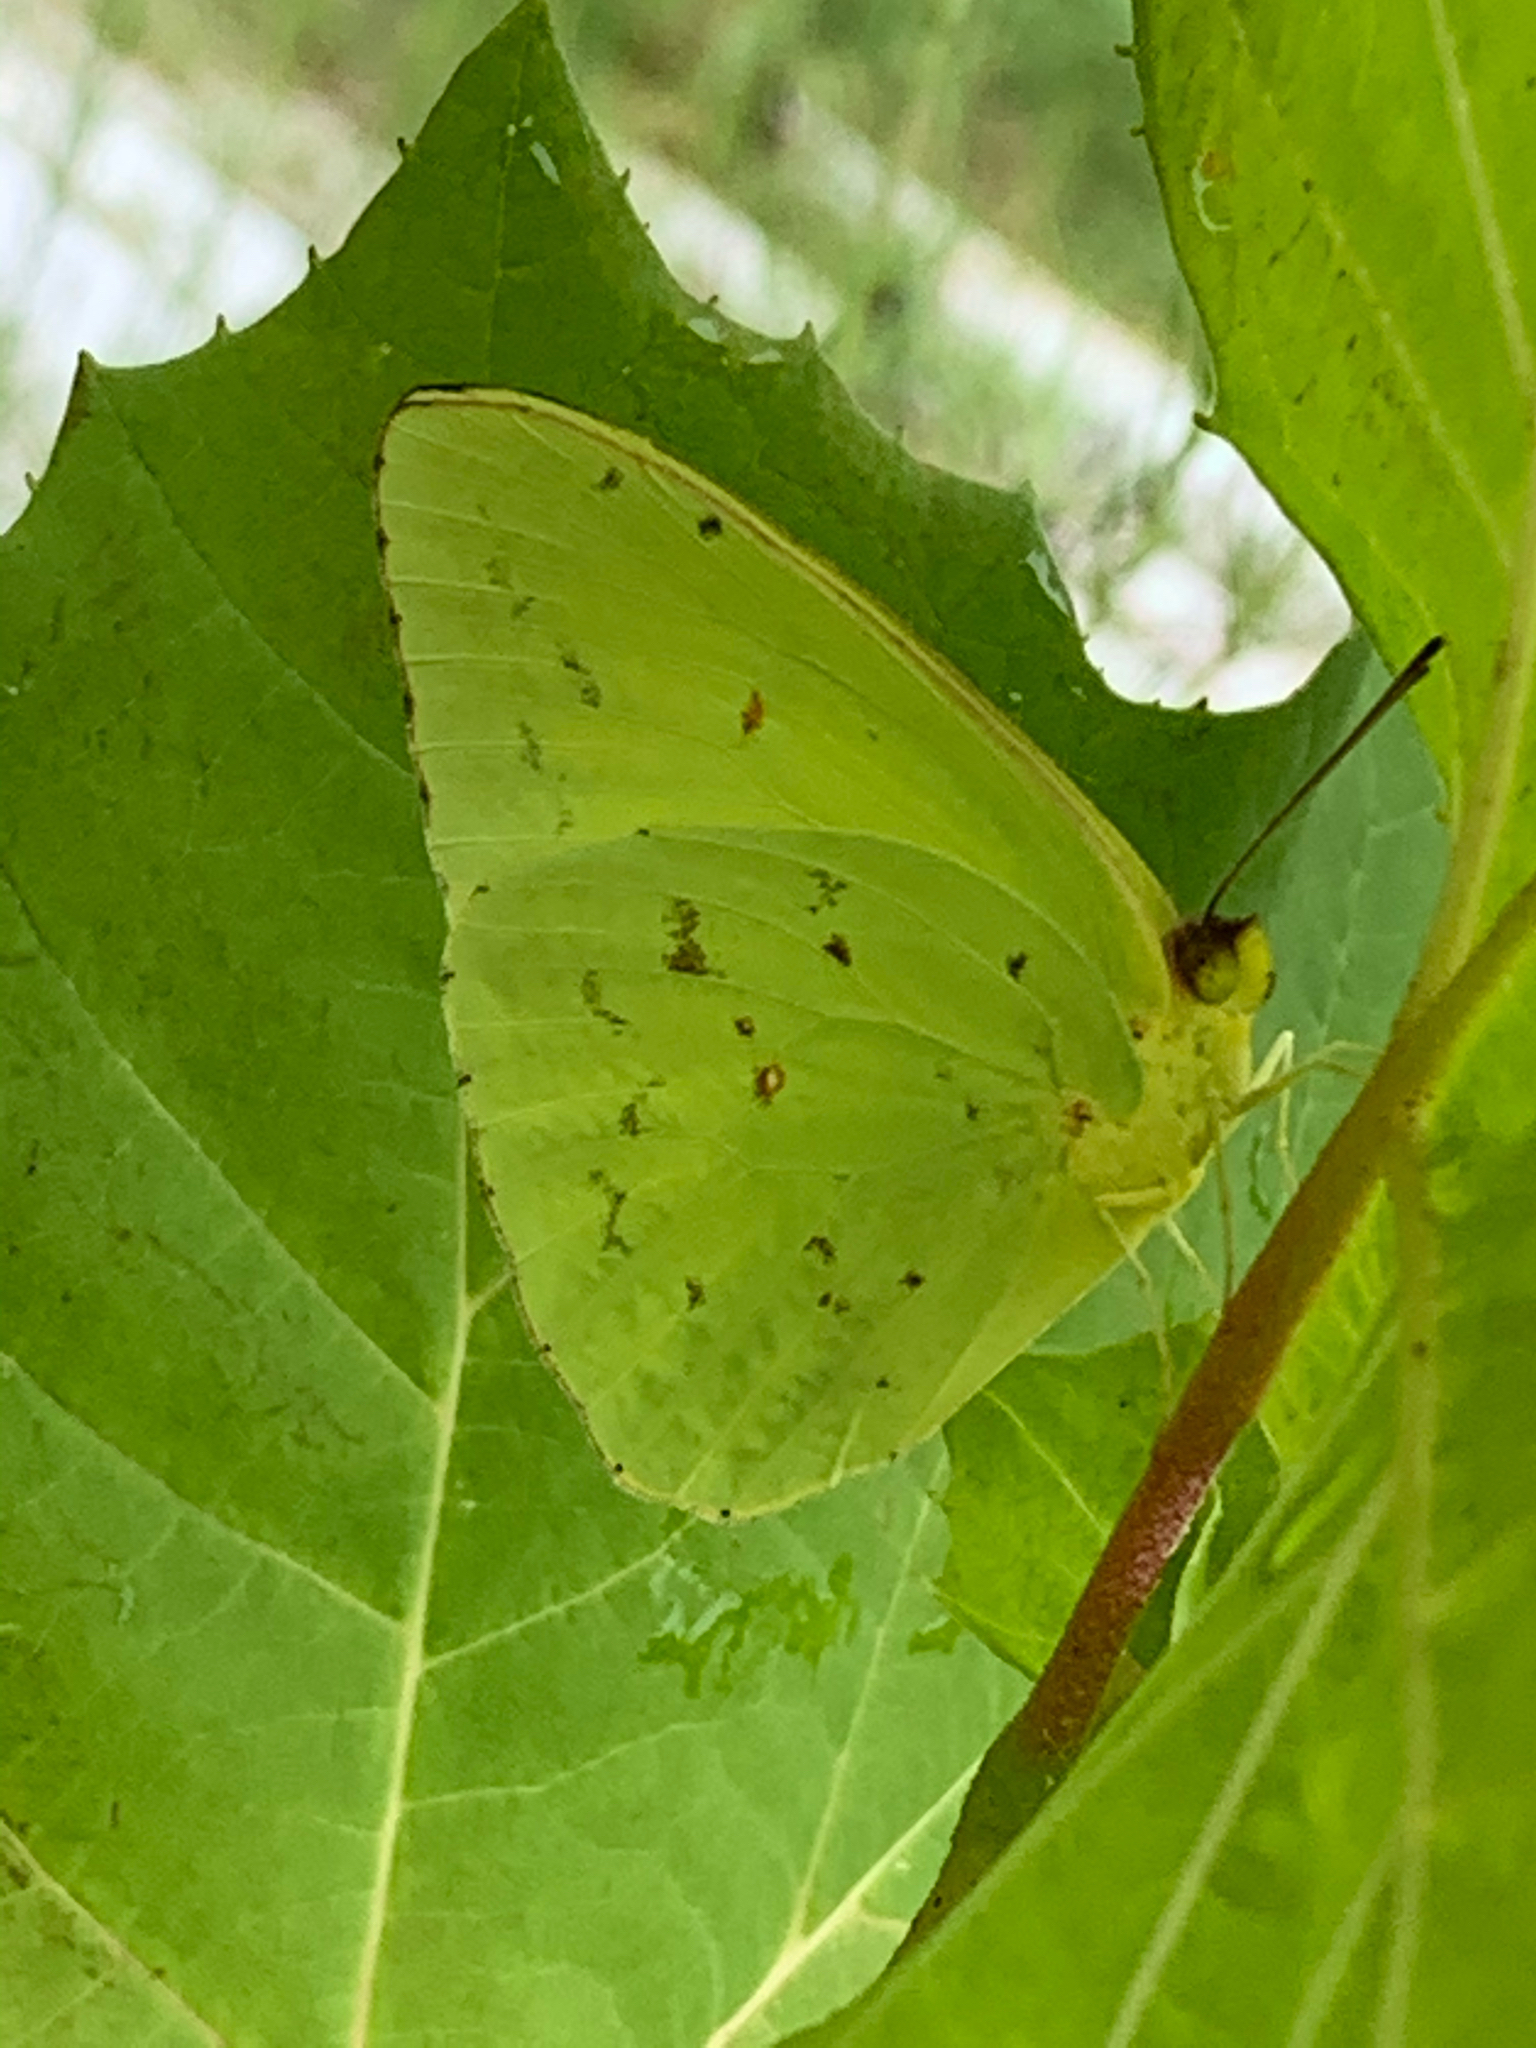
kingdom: Animalia
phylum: Arthropoda
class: Insecta
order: Lepidoptera
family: Pieridae
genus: Phoebis
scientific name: Phoebis sennae
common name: Cloudless sulphur
